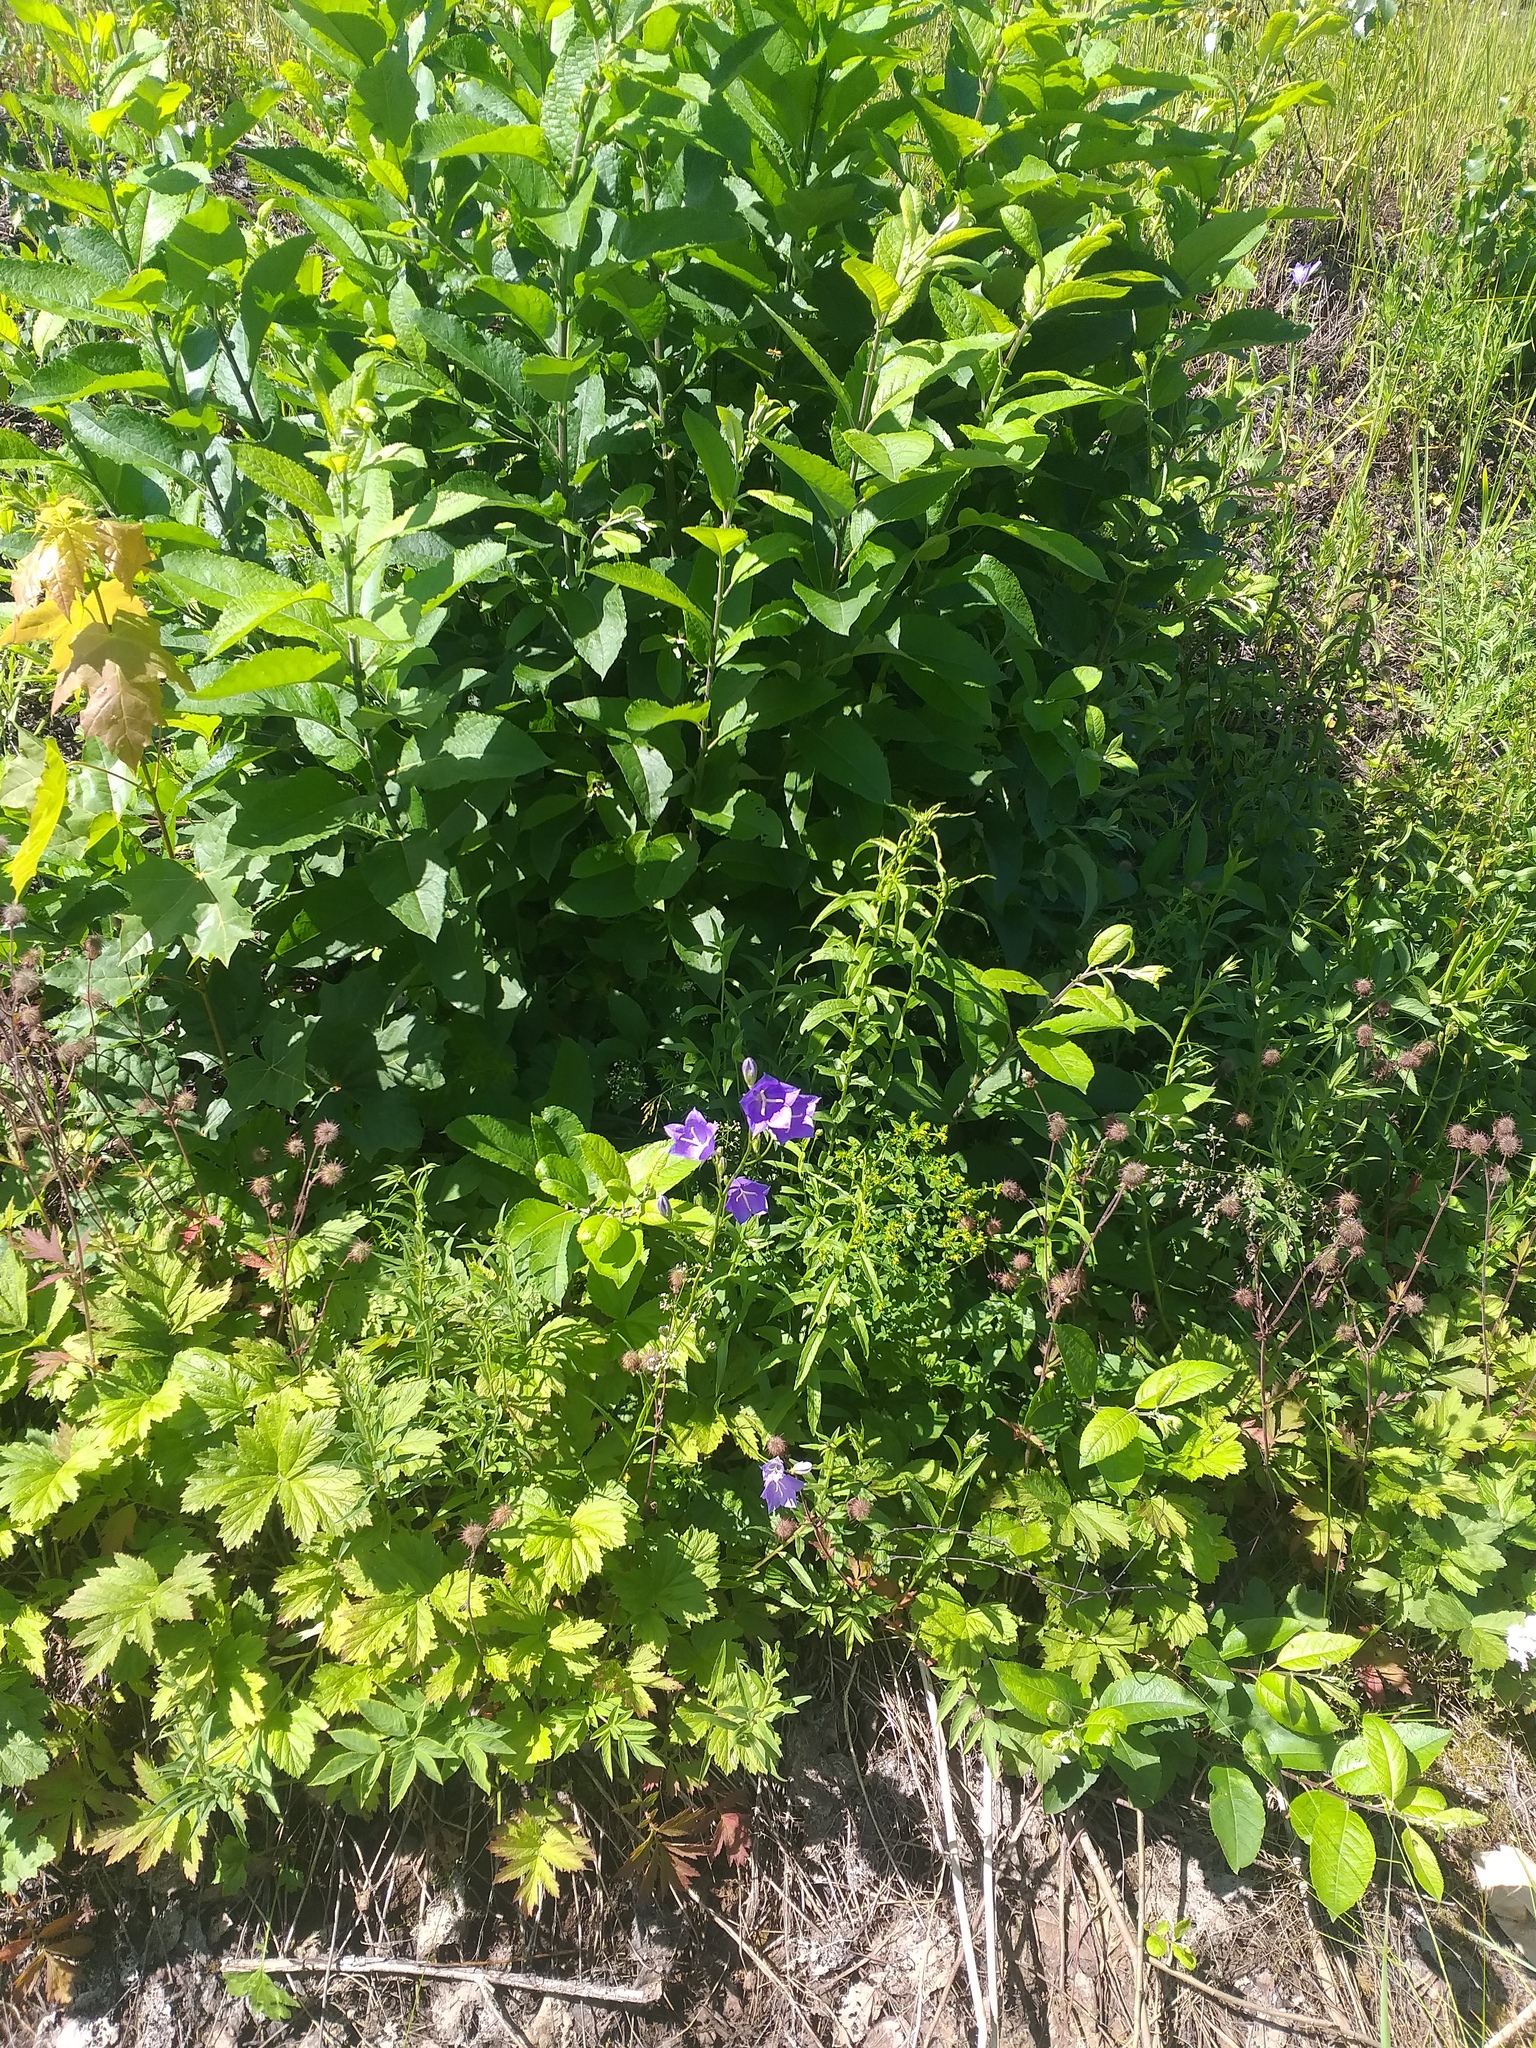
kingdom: Plantae
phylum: Tracheophyta
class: Magnoliopsida
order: Asterales
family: Campanulaceae
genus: Campanula
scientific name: Campanula persicifolia
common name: Peach-leaved bellflower
